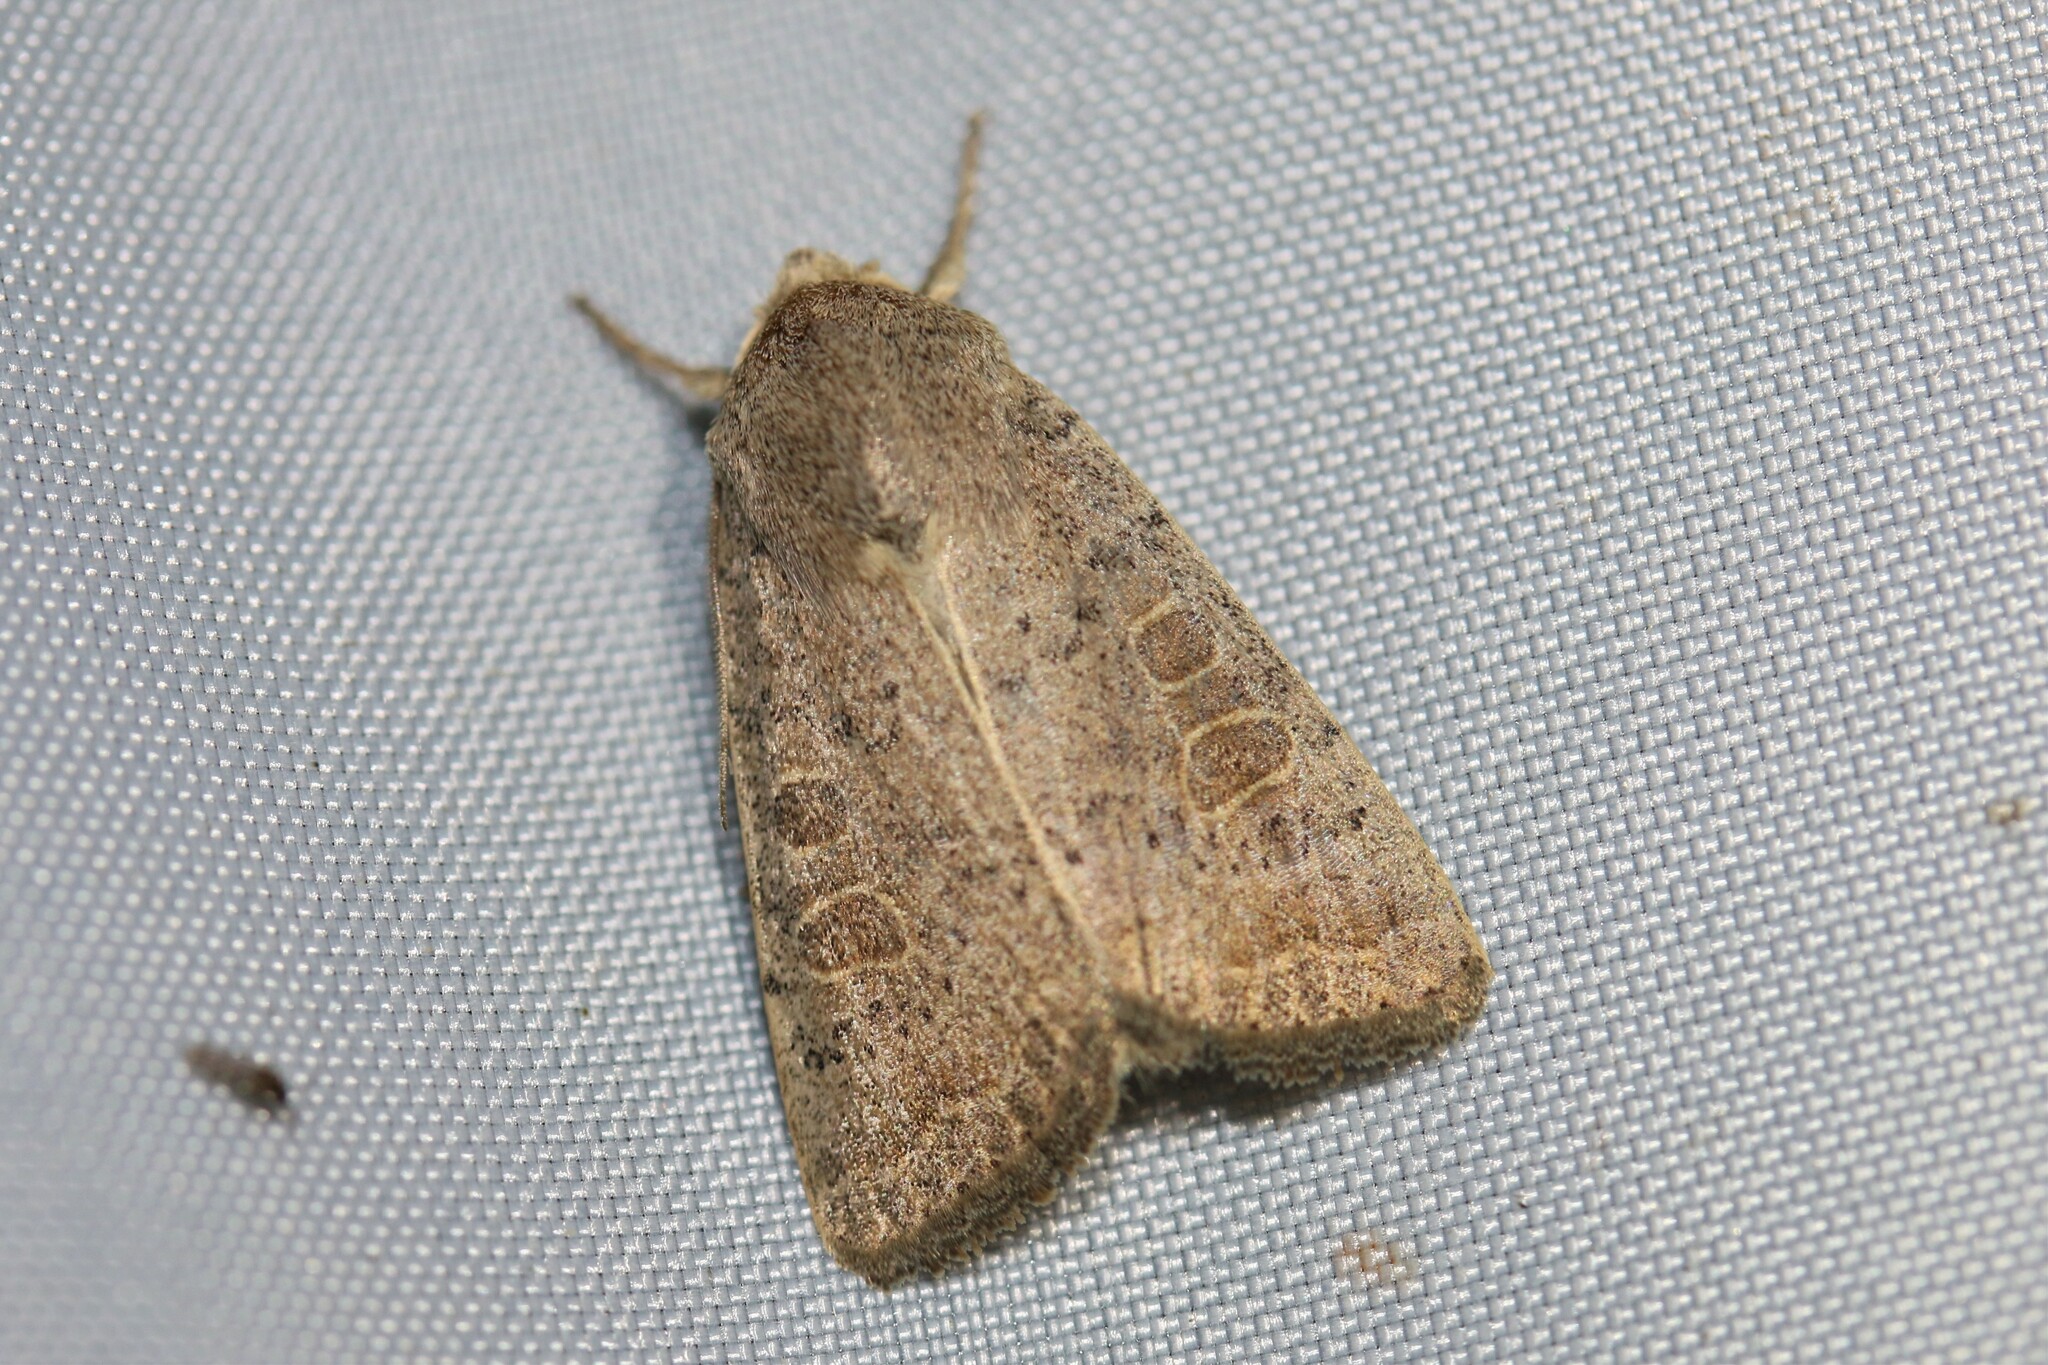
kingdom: Animalia
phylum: Arthropoda
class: Insecta
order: Lepidoptera
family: Noctuidae
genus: Hoplodrina
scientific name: Hoplodrina ambigua
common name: Vine's rustic
